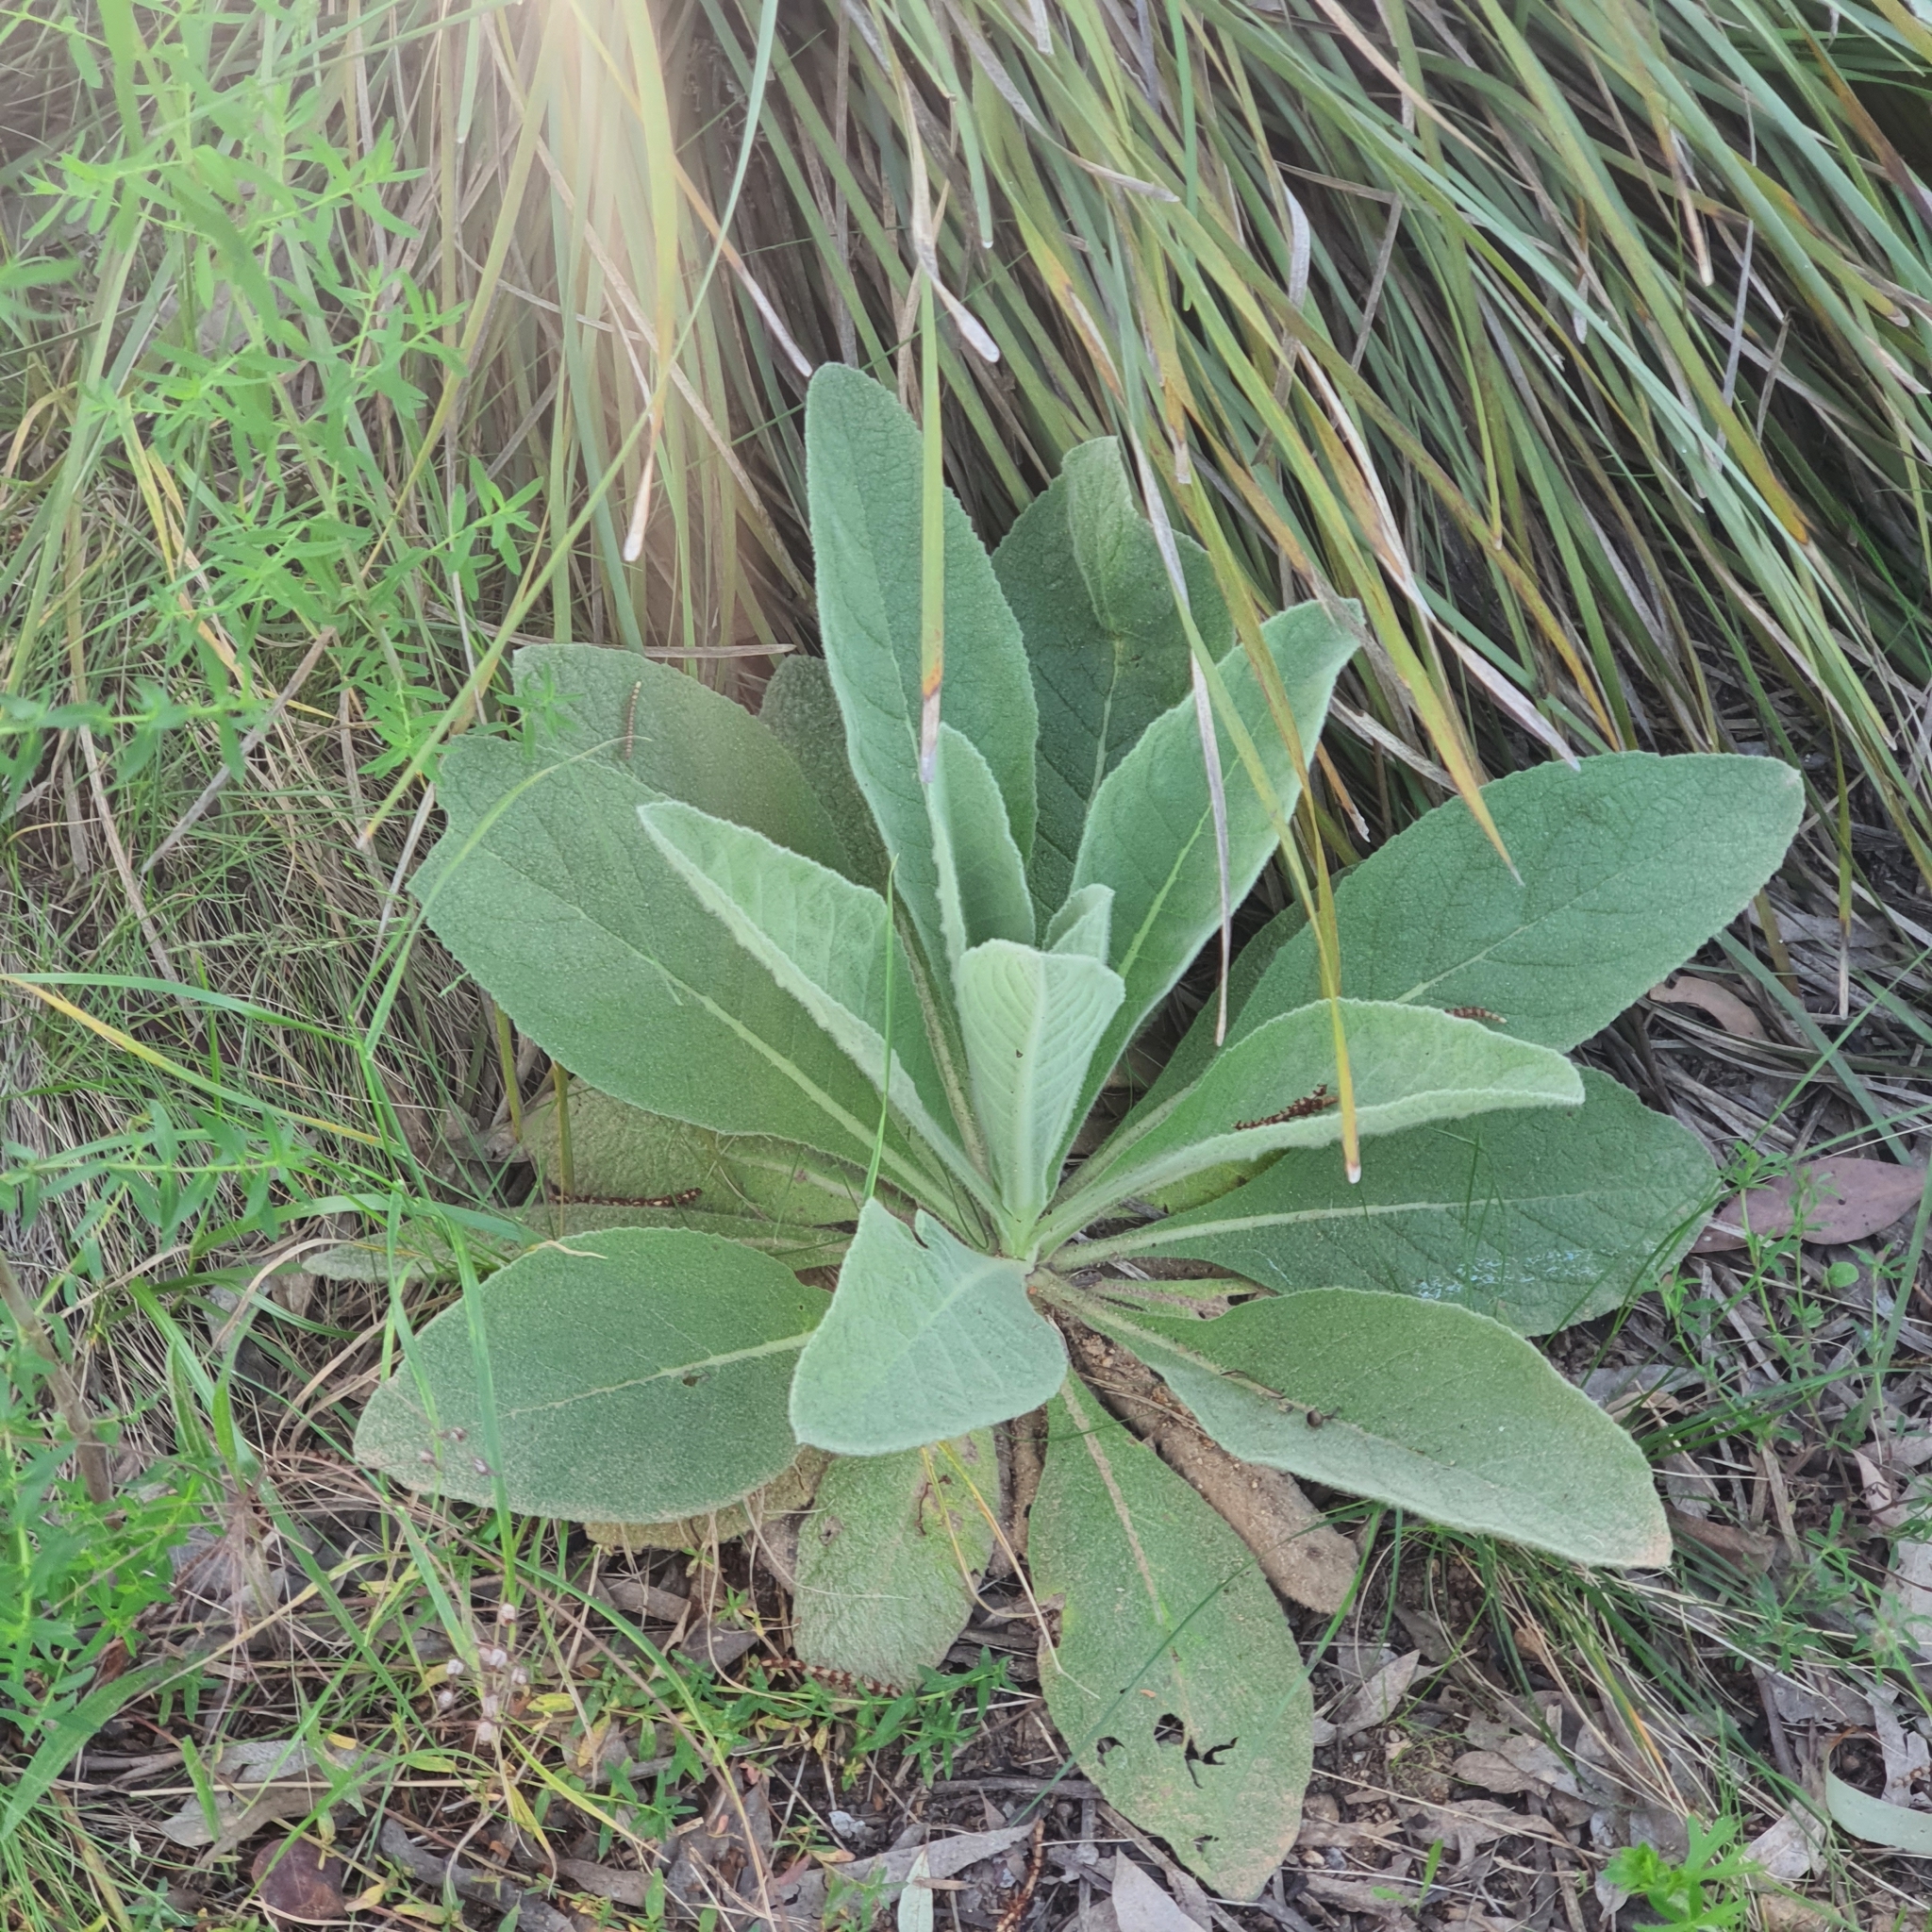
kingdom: Plantae
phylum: Tracheophyta
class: Magnoliopsida
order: Lamiales
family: Scrophulariaceae
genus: Verbascum
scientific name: Verbascum thapsus
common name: Common mullein
